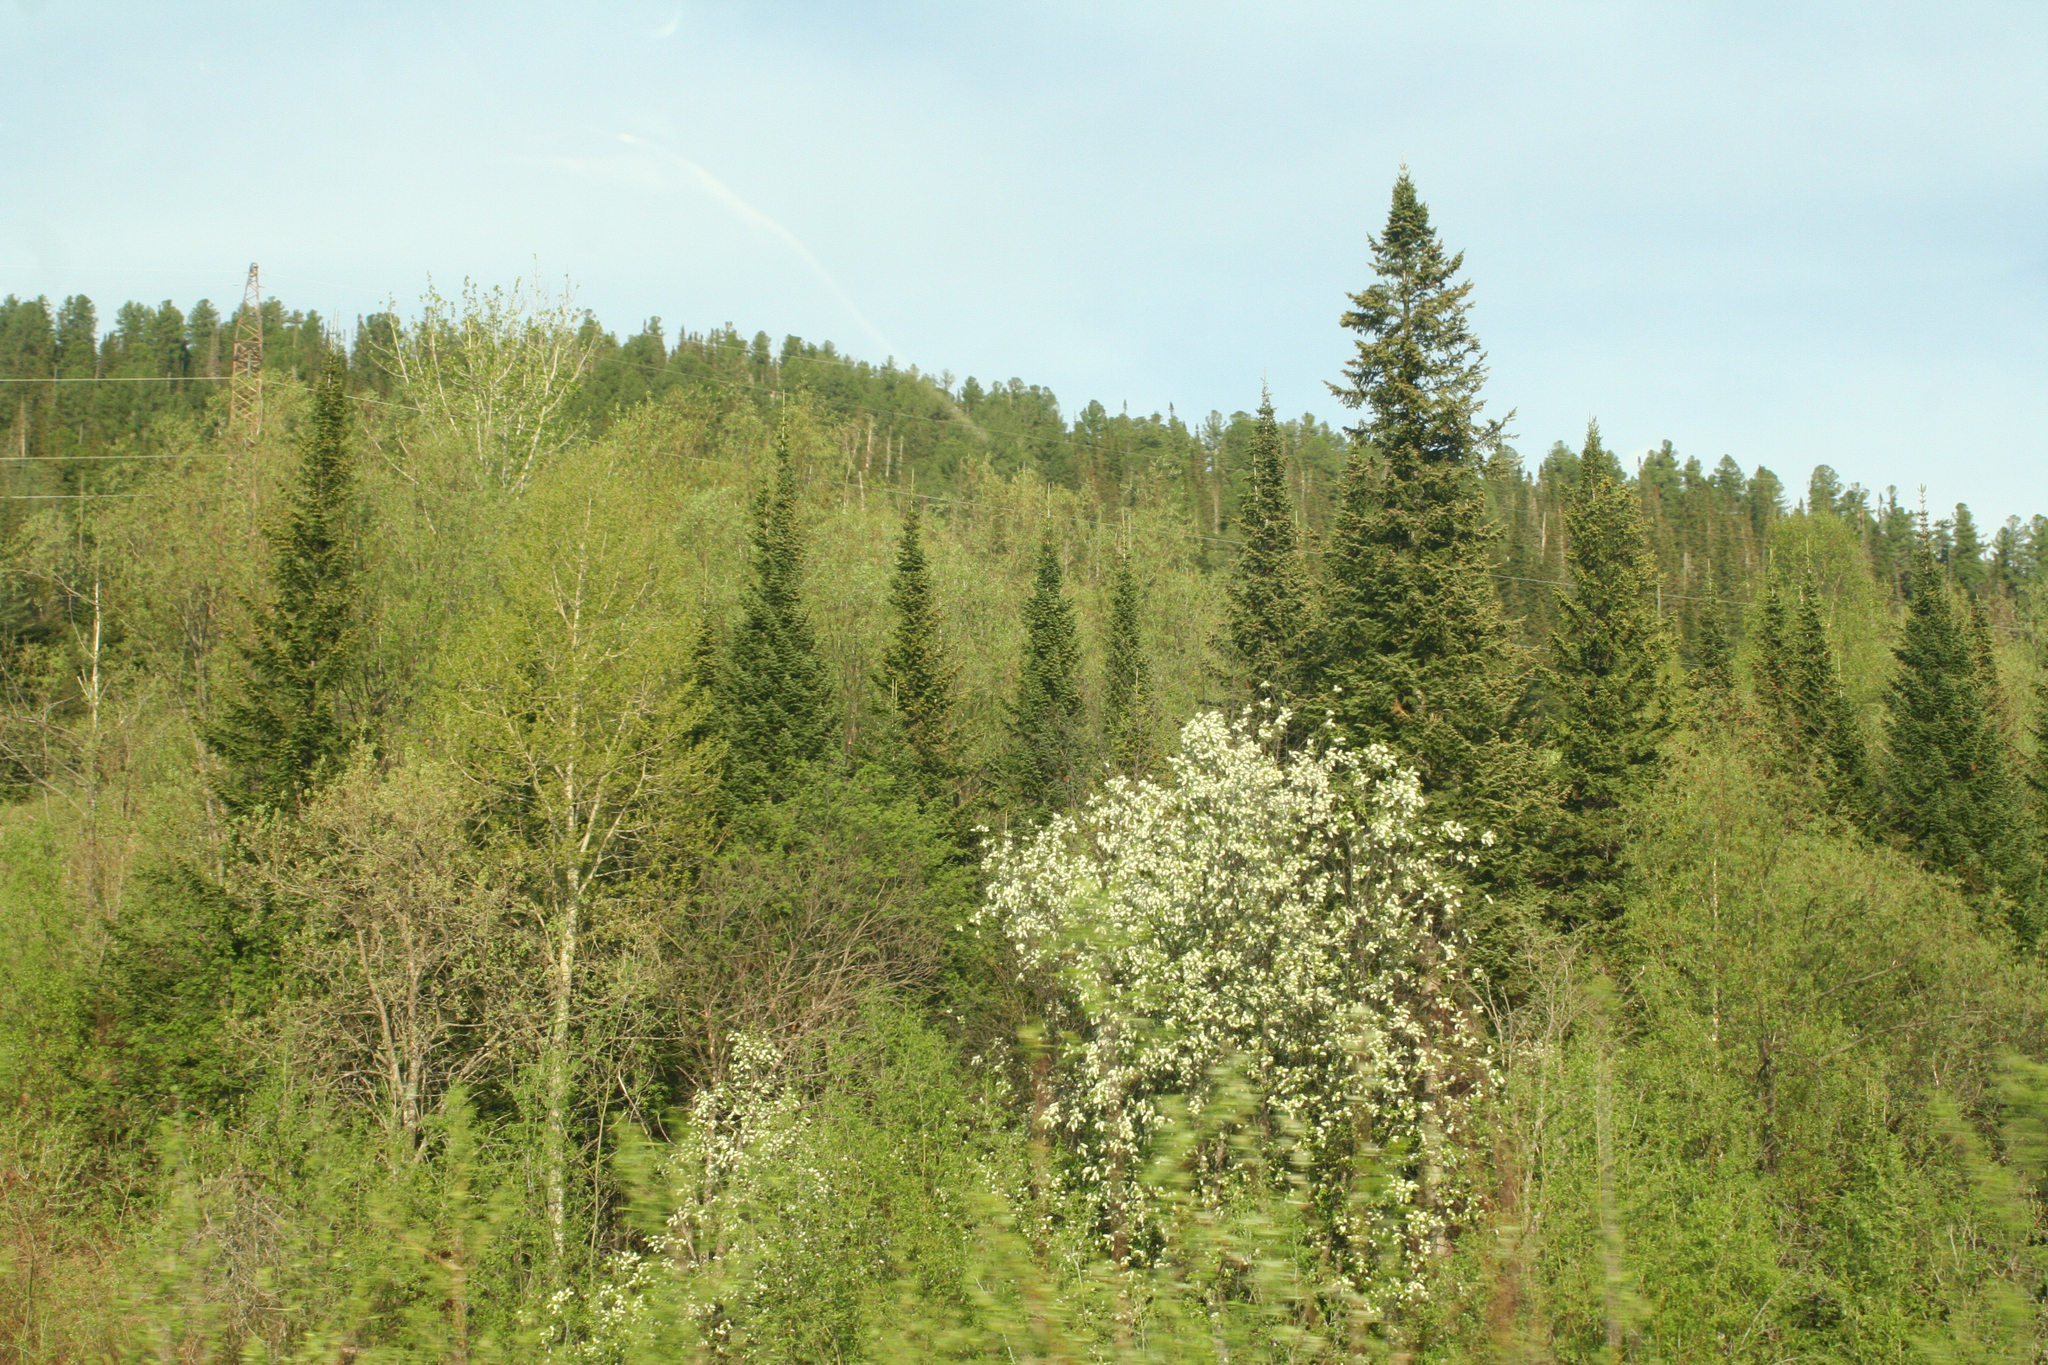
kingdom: Plantae
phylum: Tracheophyta
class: Magnoliopsida
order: Rosales
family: Rosaceae
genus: Prunus
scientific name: Prunus padus
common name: Bird cherry
